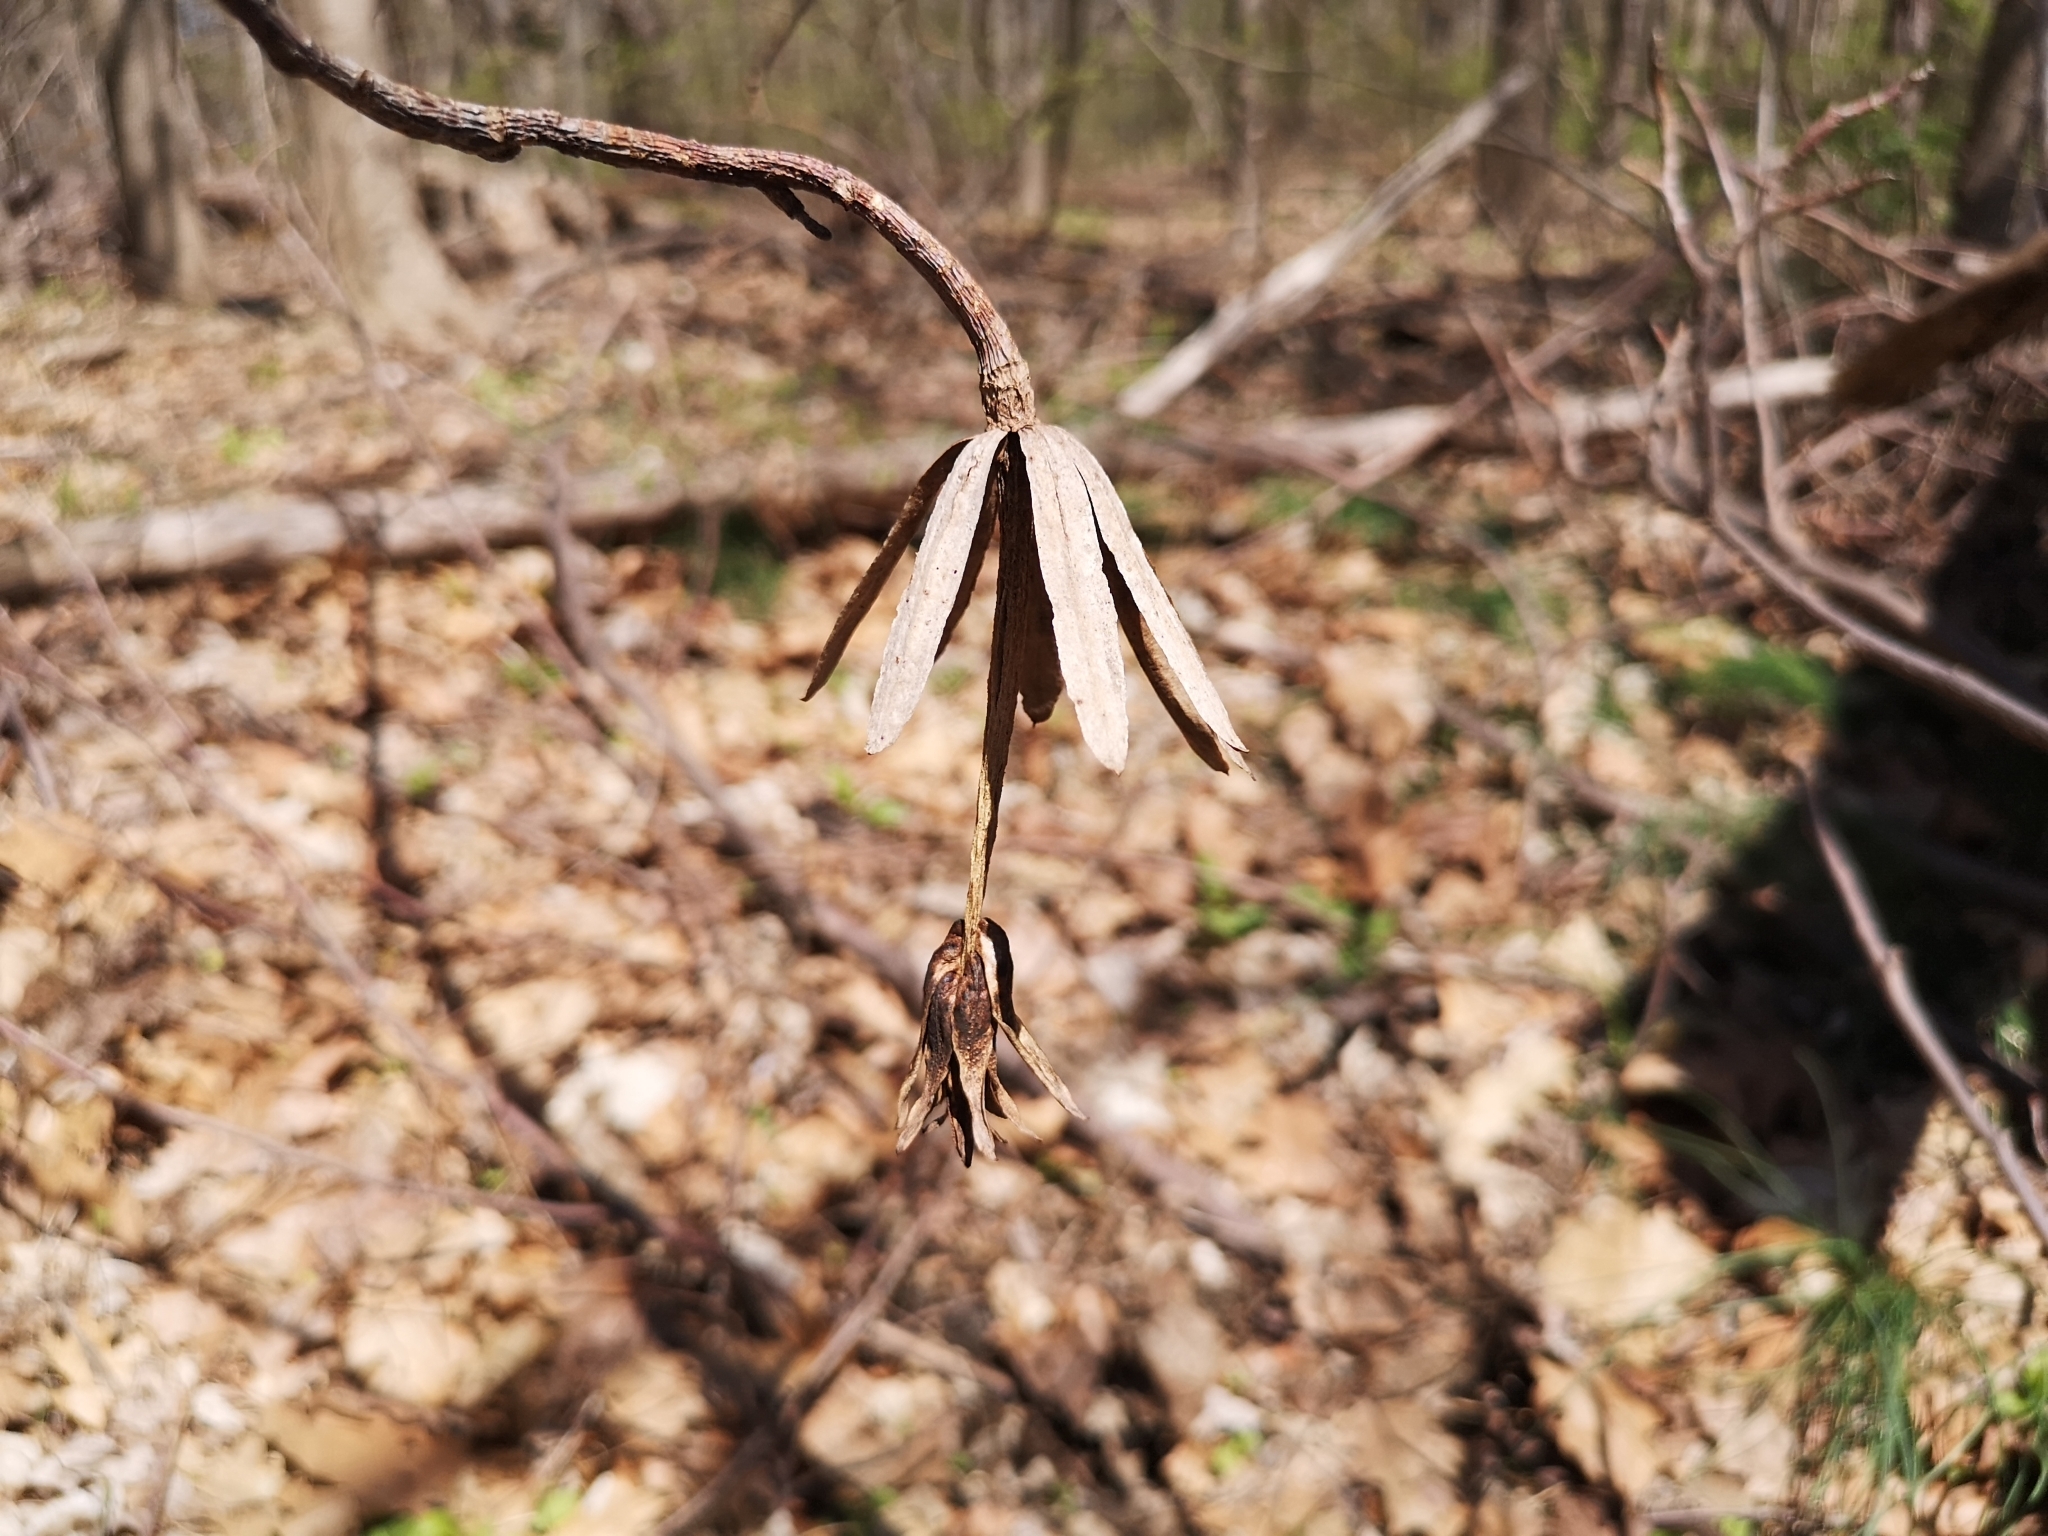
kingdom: Plantae
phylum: Tracheophyta
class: Magnoliopsida
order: Magnoliales
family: Magnoliaceae
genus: Liriodendron
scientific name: Liriodendron tulipifera
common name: Tulip tree
